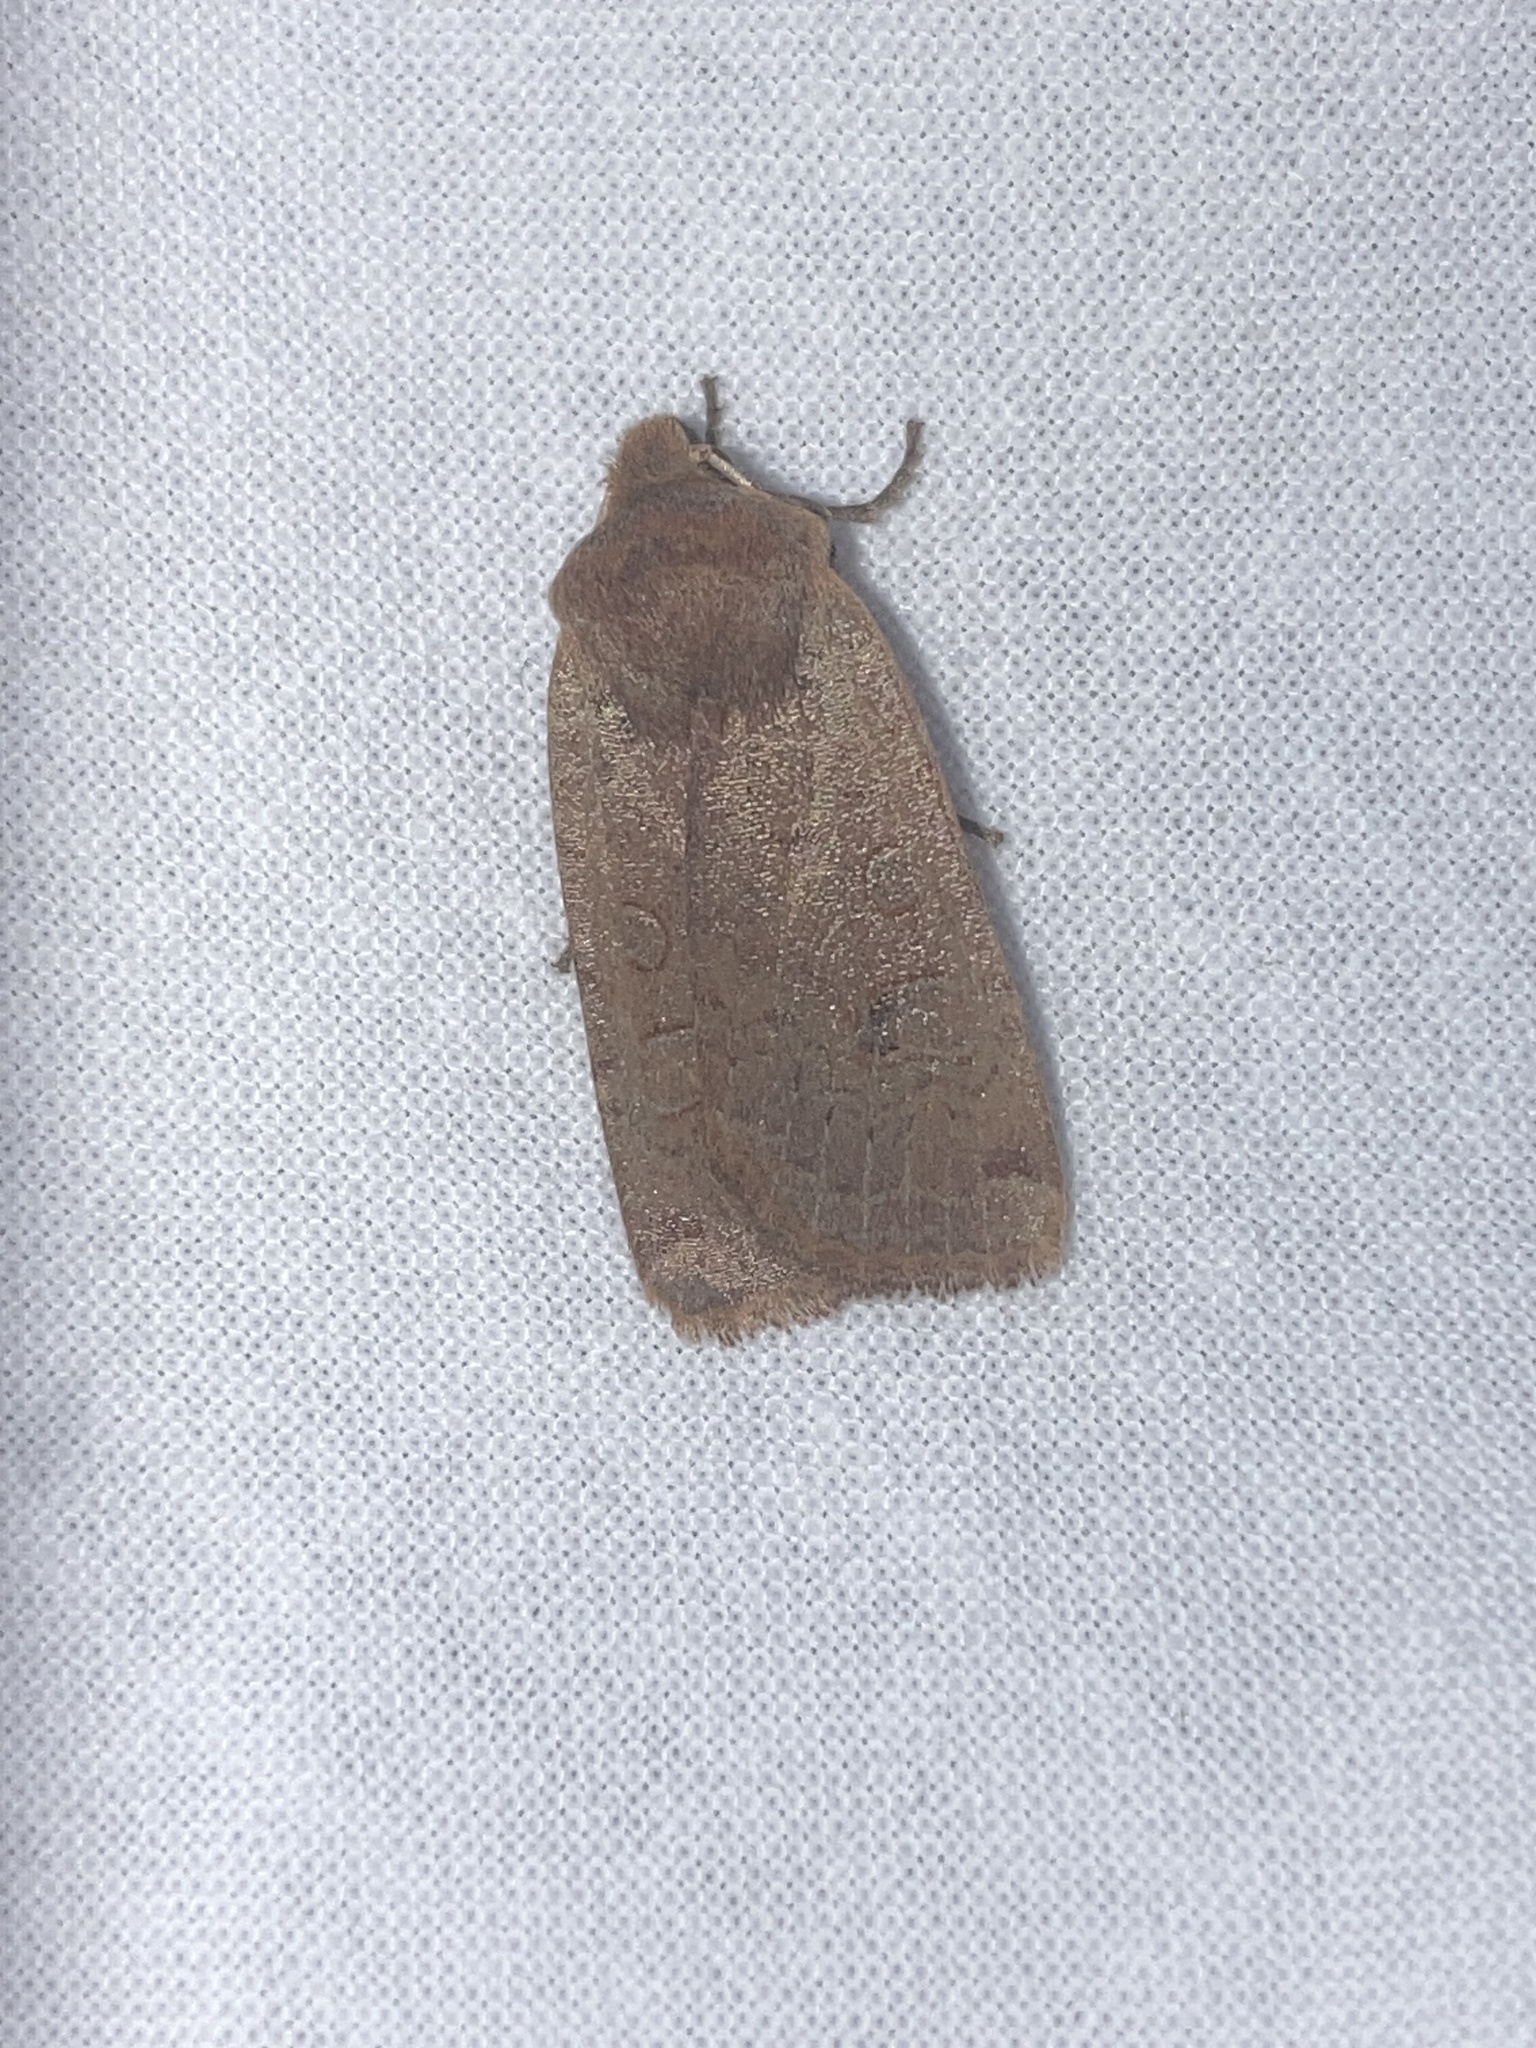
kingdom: Animalia
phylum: Arthropoda
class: Insecta
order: Lepidoptera
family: Noctuidae
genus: Conistra
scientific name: Conistra erythrocephala
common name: Red-headed chestnut
